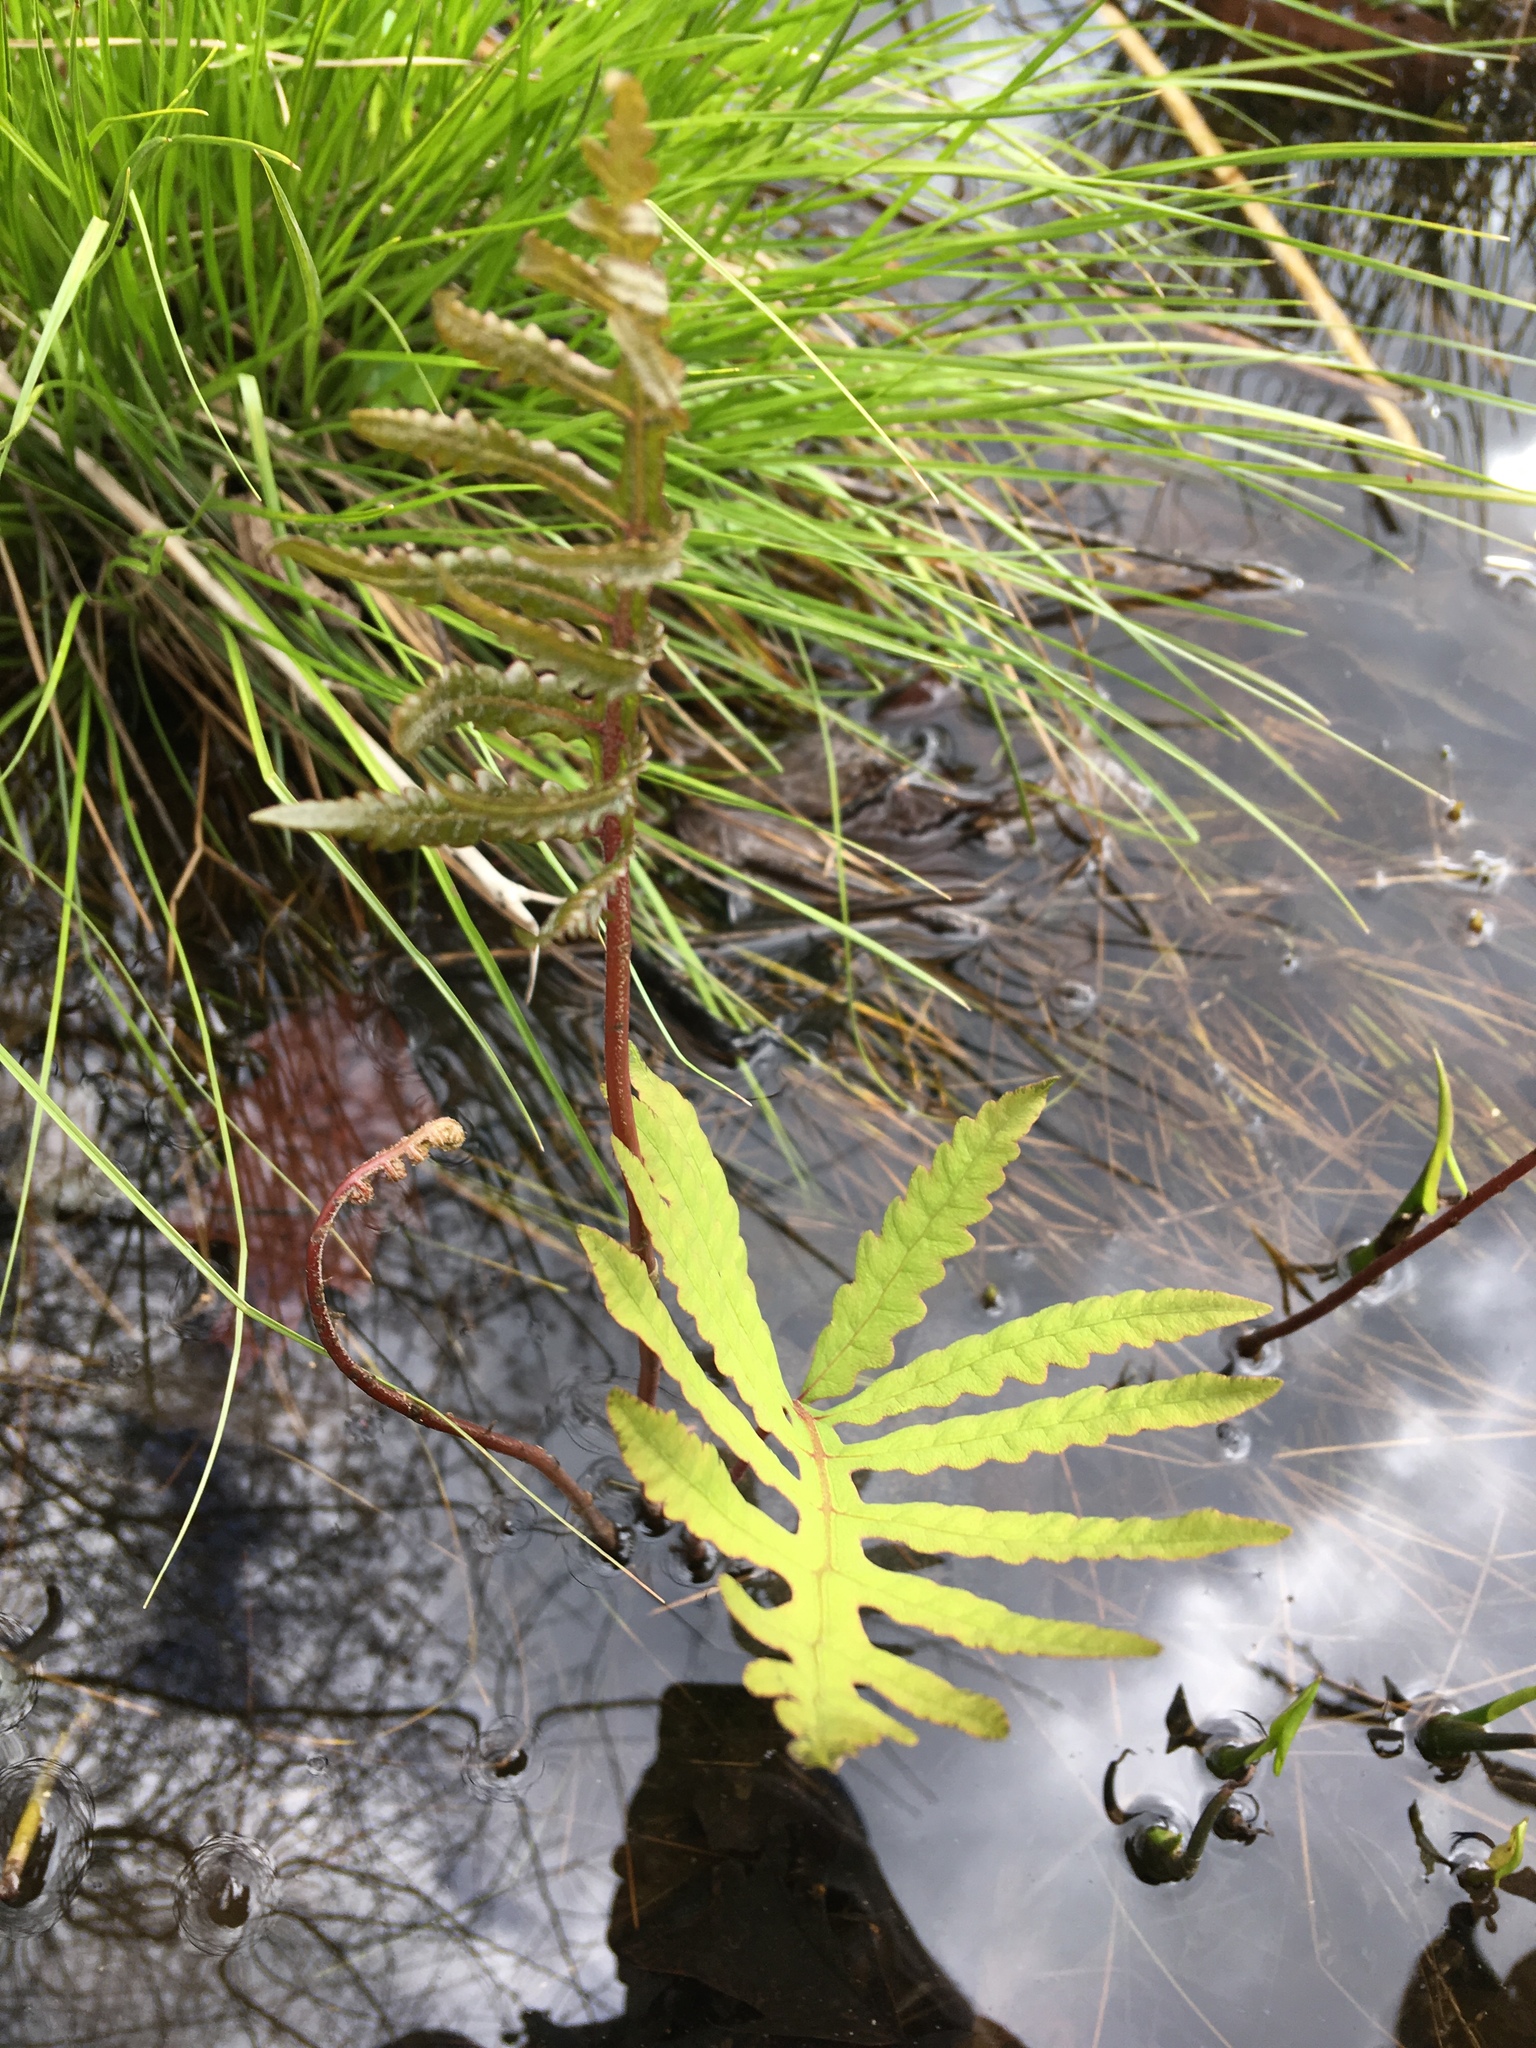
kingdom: Plantae
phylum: Tracheophyta
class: Polypodiopsida
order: Polypodiales
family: Onocleaceae
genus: Onoclea
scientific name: Onoclea sensibilis
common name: Sensitive fern
